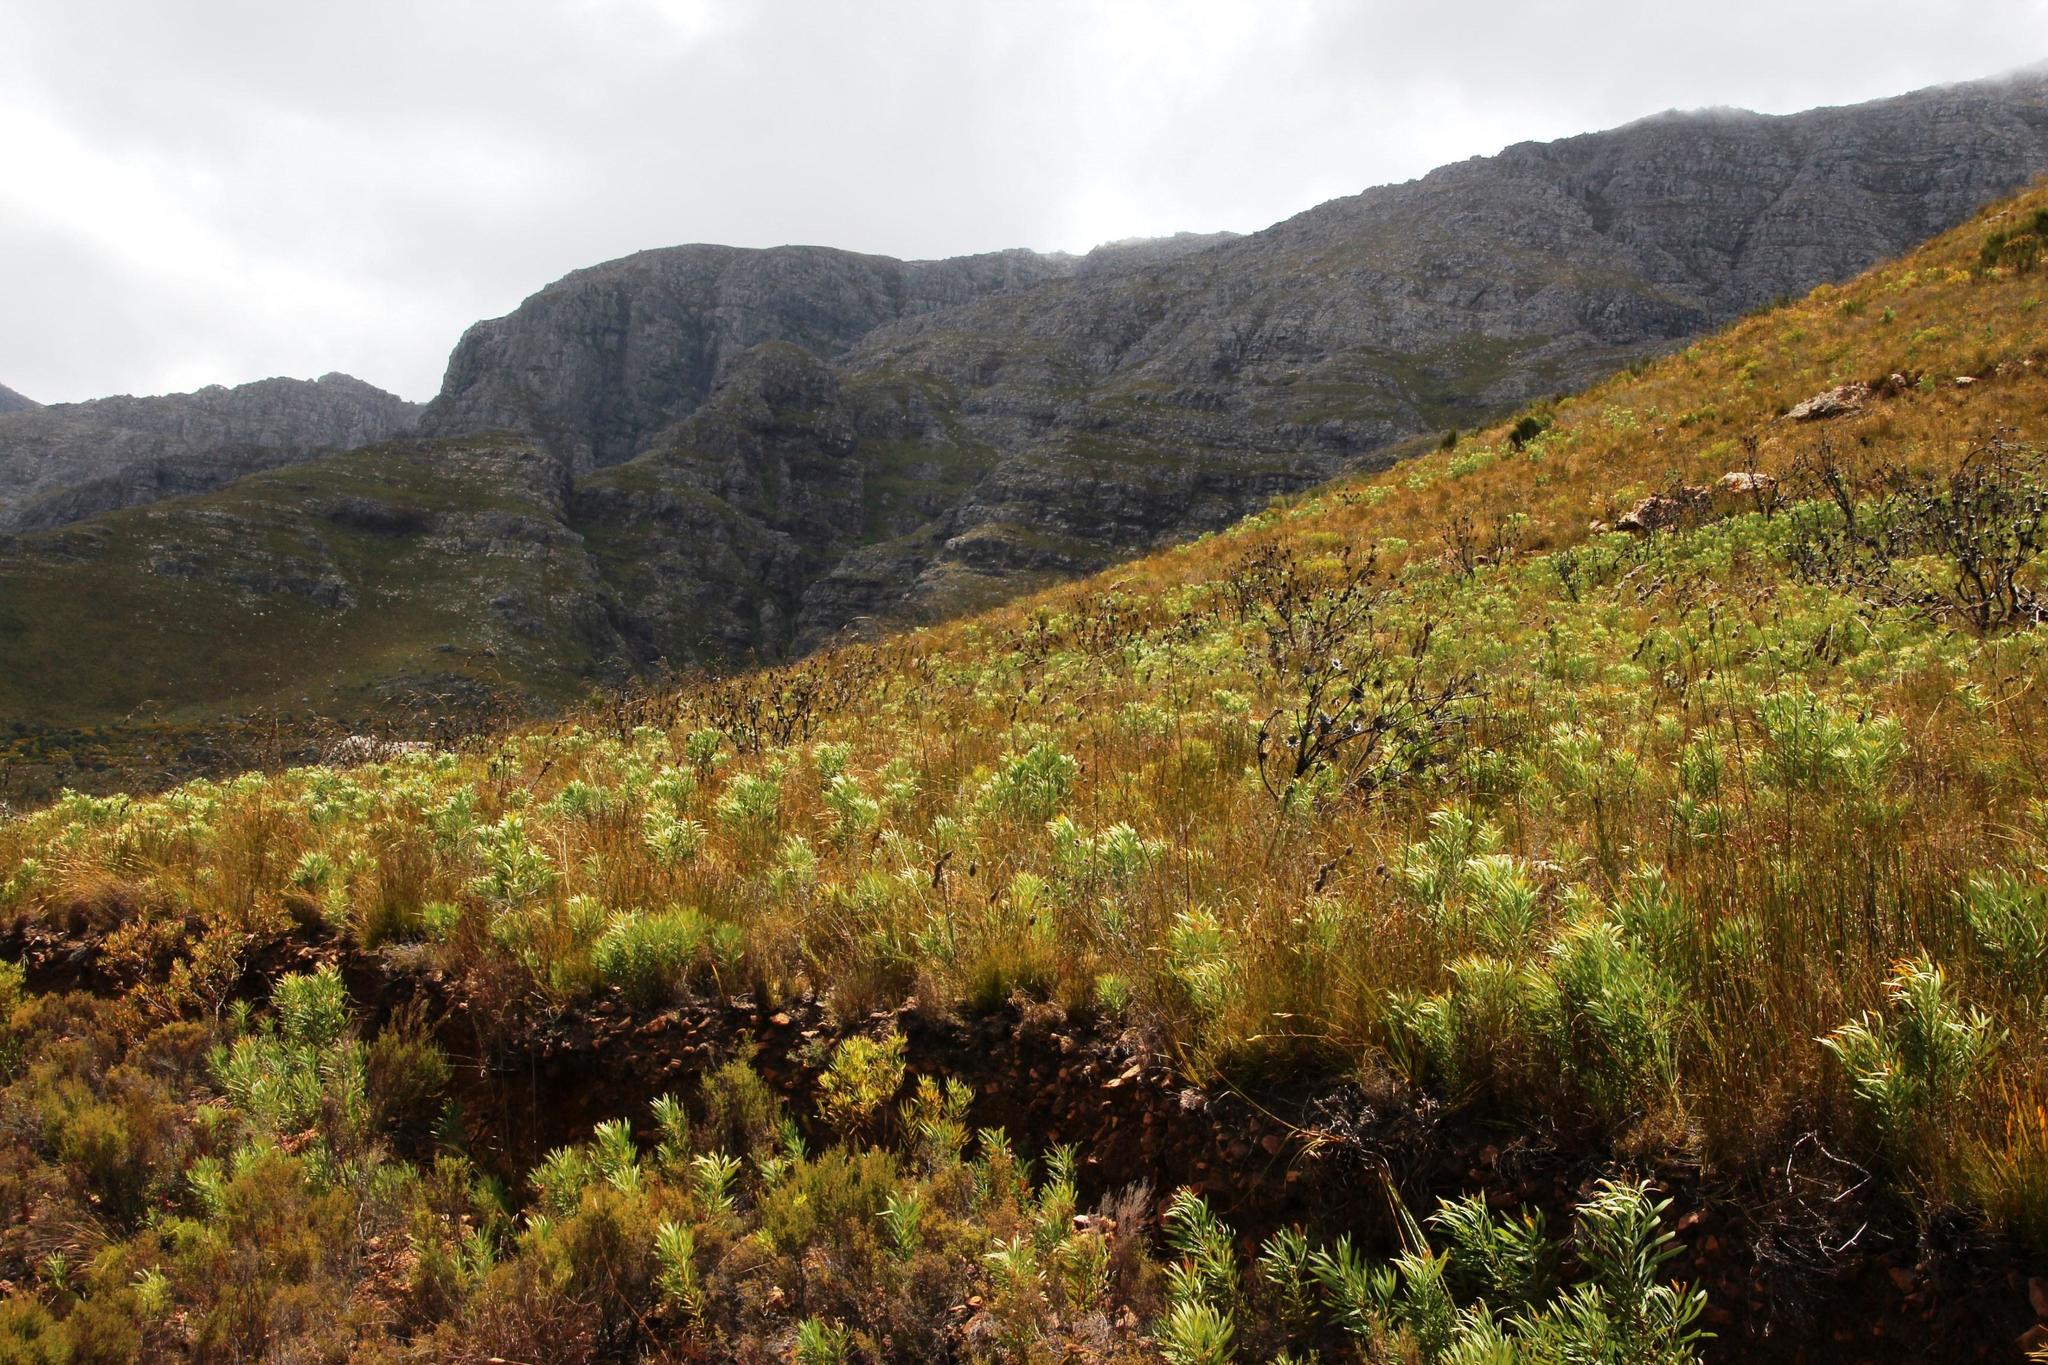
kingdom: Plantae
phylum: Tracheophyta
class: Magnoliopsida
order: Proteales
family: Proteaceae
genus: Protea
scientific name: Protea repens
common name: Sugarbush
